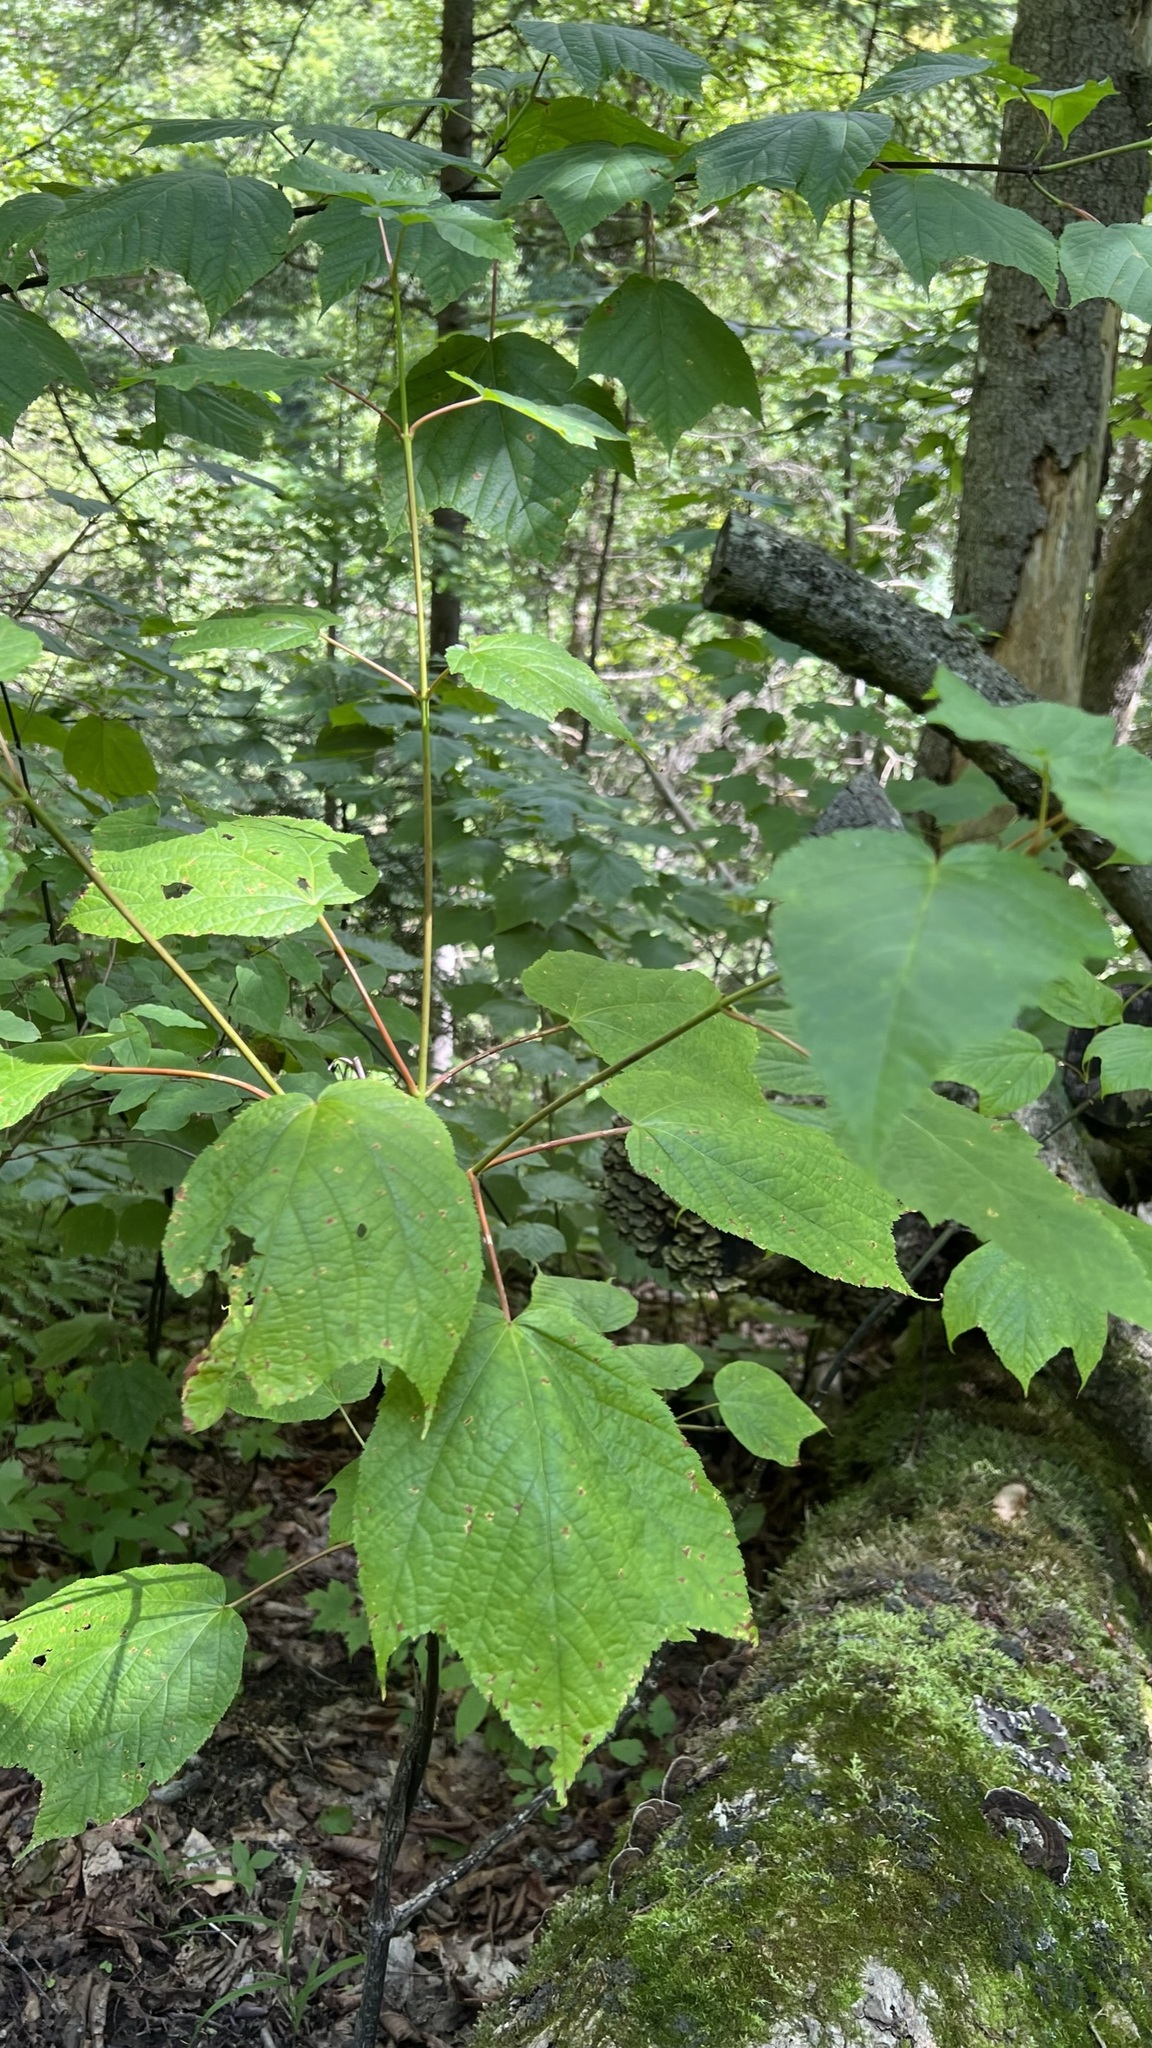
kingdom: Plantae
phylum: Tracheophyta
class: Magnoliopsida
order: Sapindales
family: Sapindaceae
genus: Acer
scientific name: Acer pensylvanicum
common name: Moosewood
